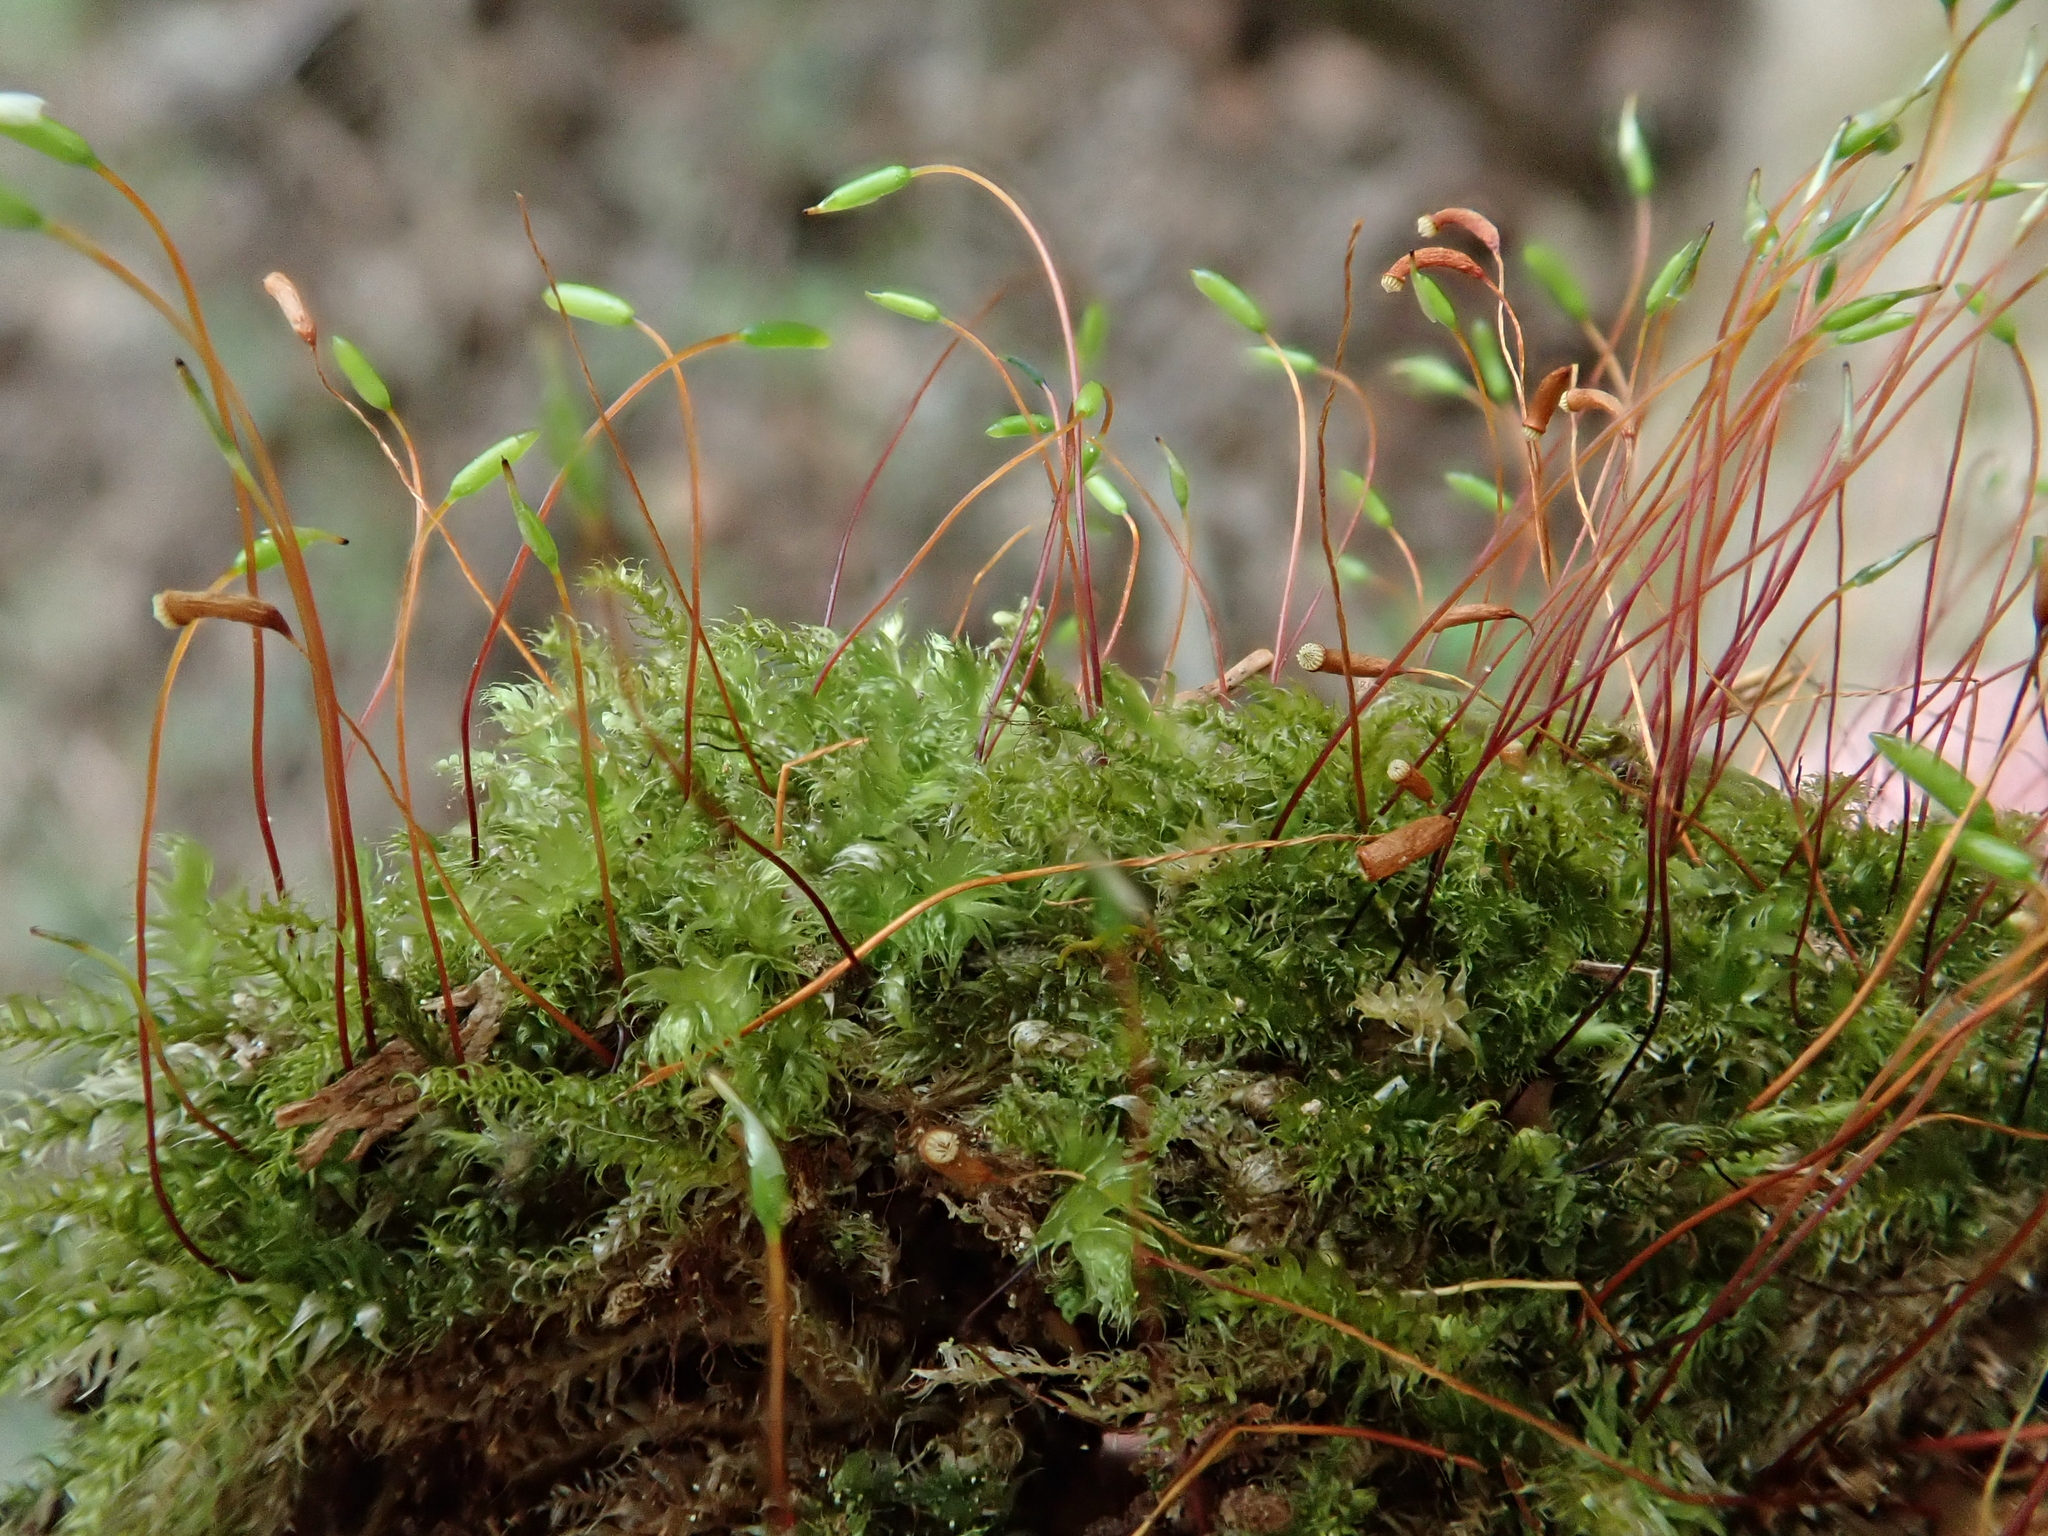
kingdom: Plantae
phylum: Bryophyta
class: Bryopsida
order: Hypnales
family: Plagiotheciaceae
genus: Herzogiella
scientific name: Herzogiella seligeri
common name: Silesian feather-moss
